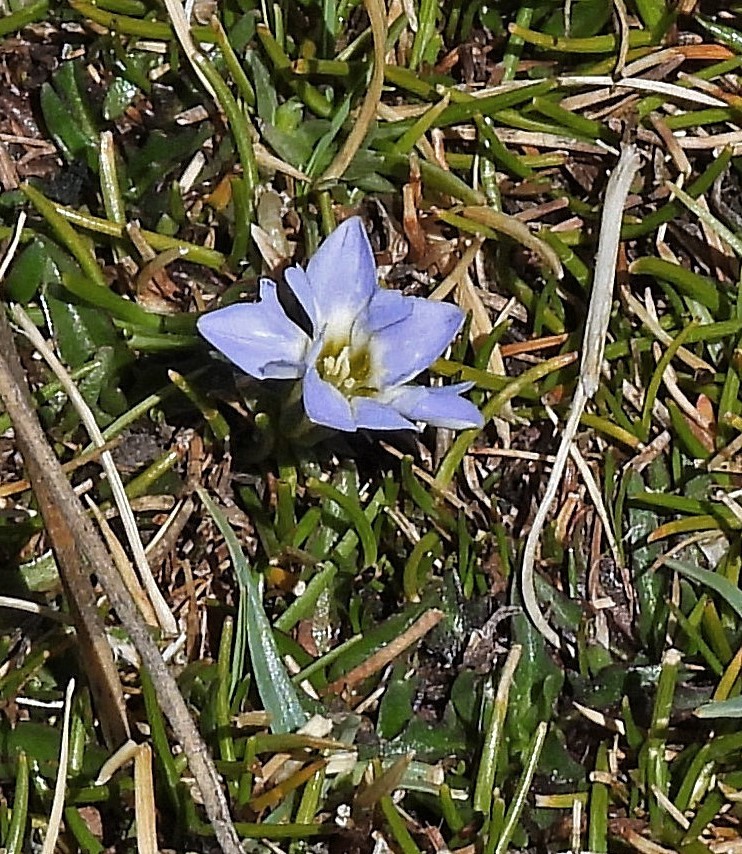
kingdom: Plantae
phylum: Tracheophyta
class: Magnoliopsida
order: Gentianales
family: Gentianaceae
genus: Gentiana
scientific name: Gentiana sedifolia
